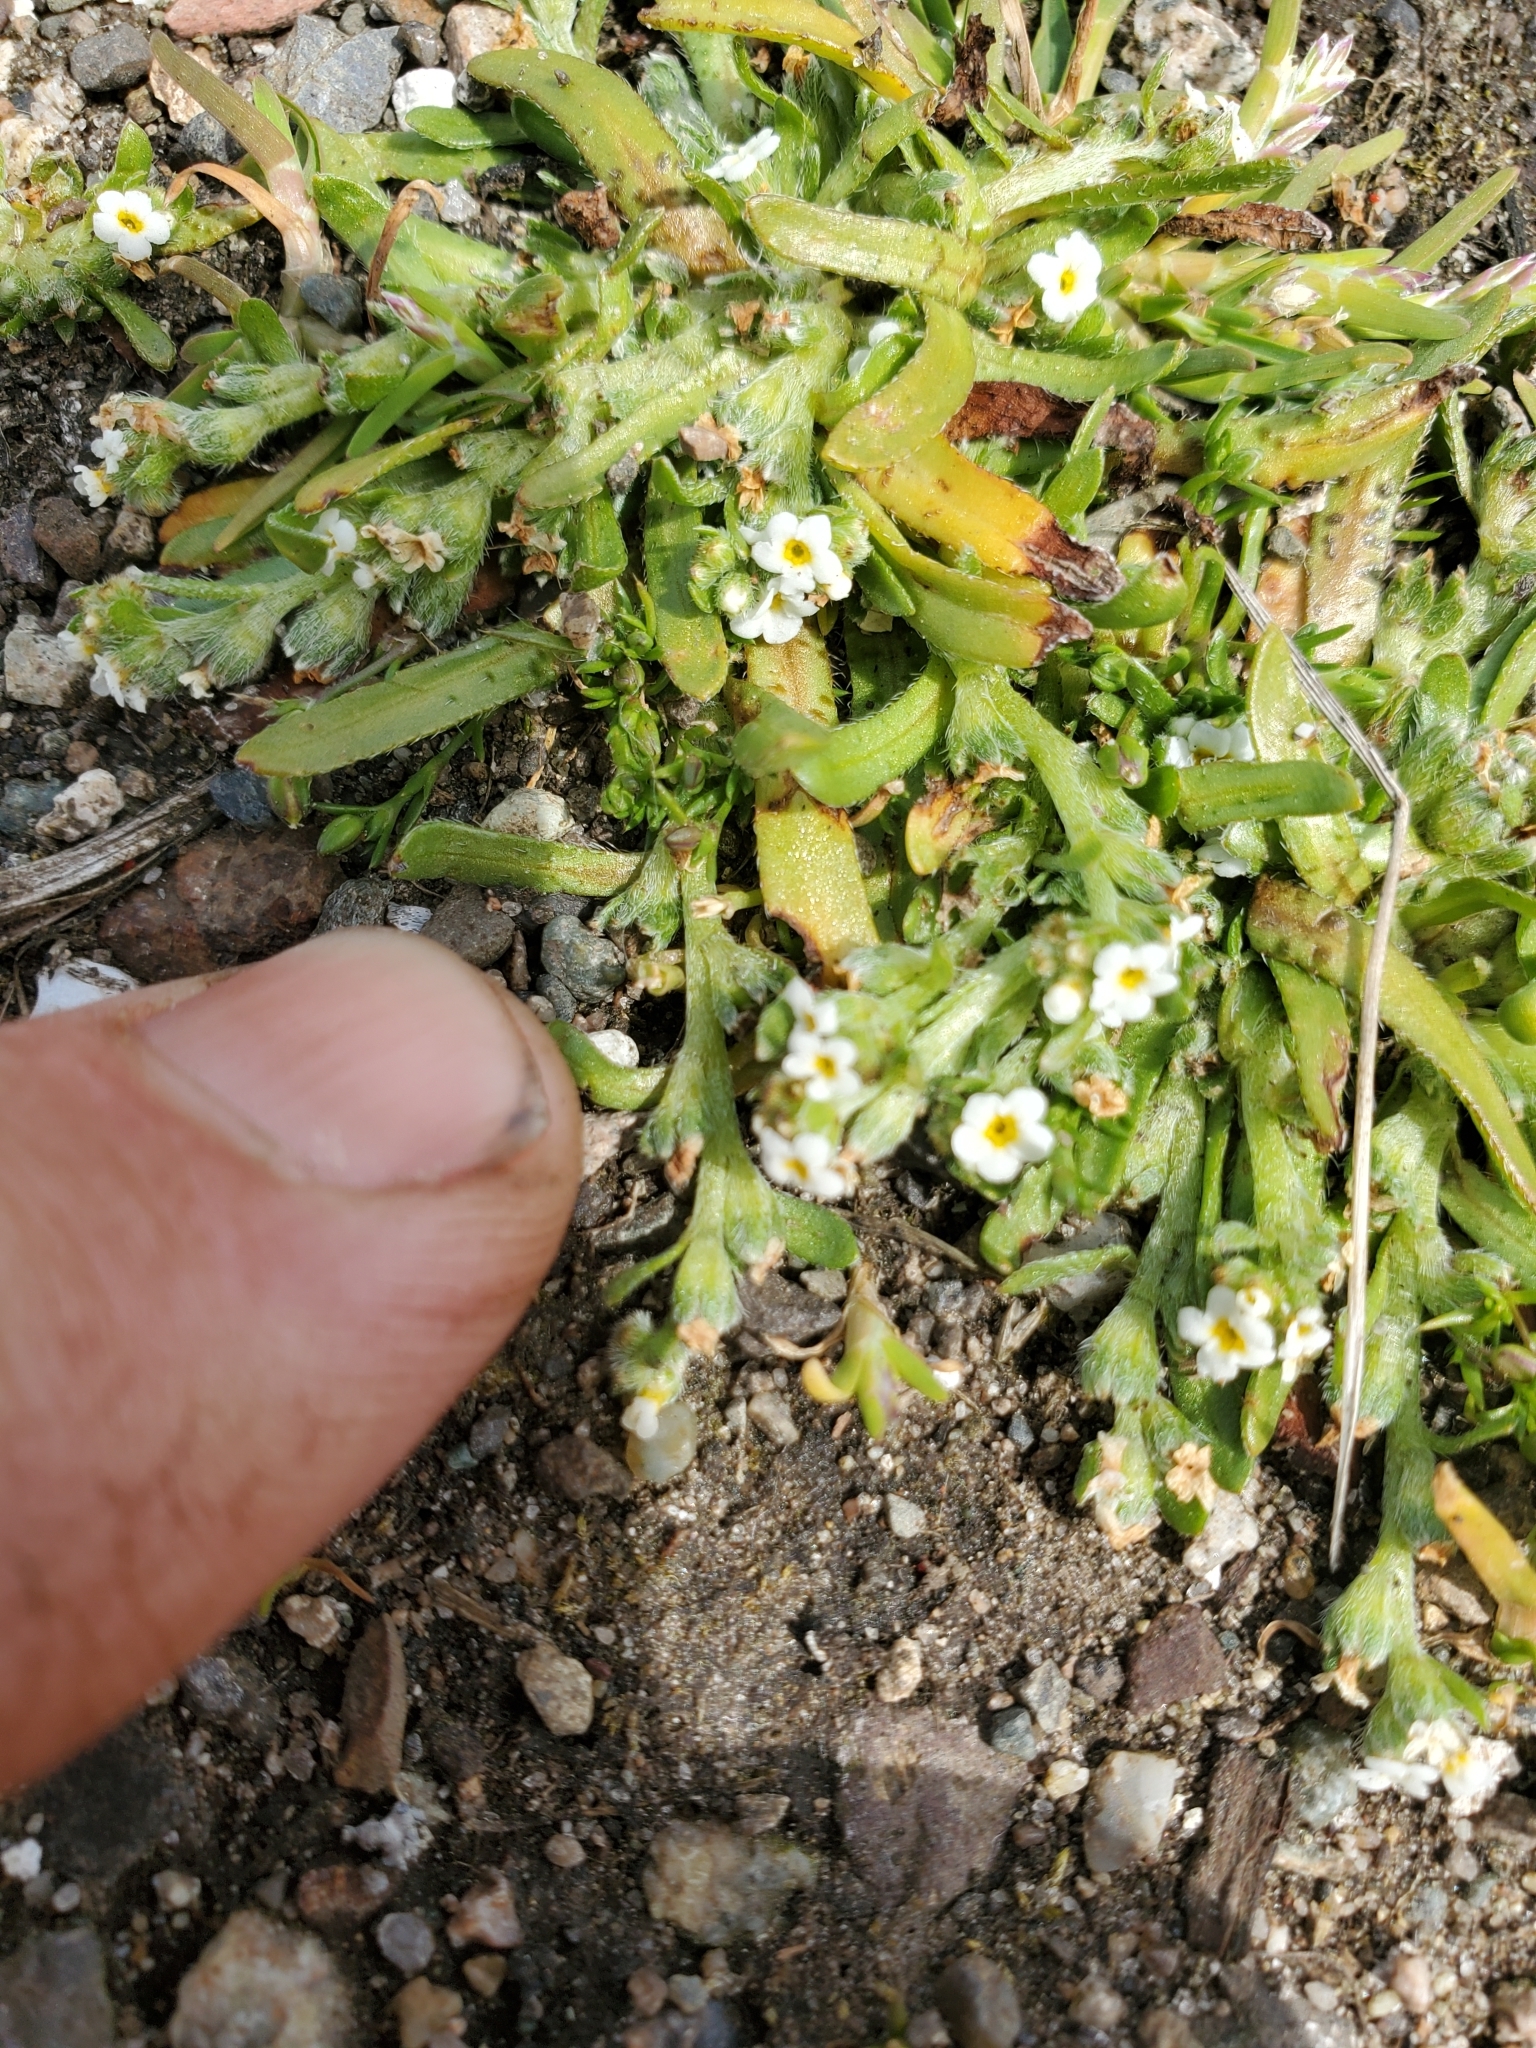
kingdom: Plantae
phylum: Tracheophyta
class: Magnoliopsida
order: Boraginales
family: Boraginaceae
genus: Plagiobothrys
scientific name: Plagiobothrys scouleri
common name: White forget-me-not
